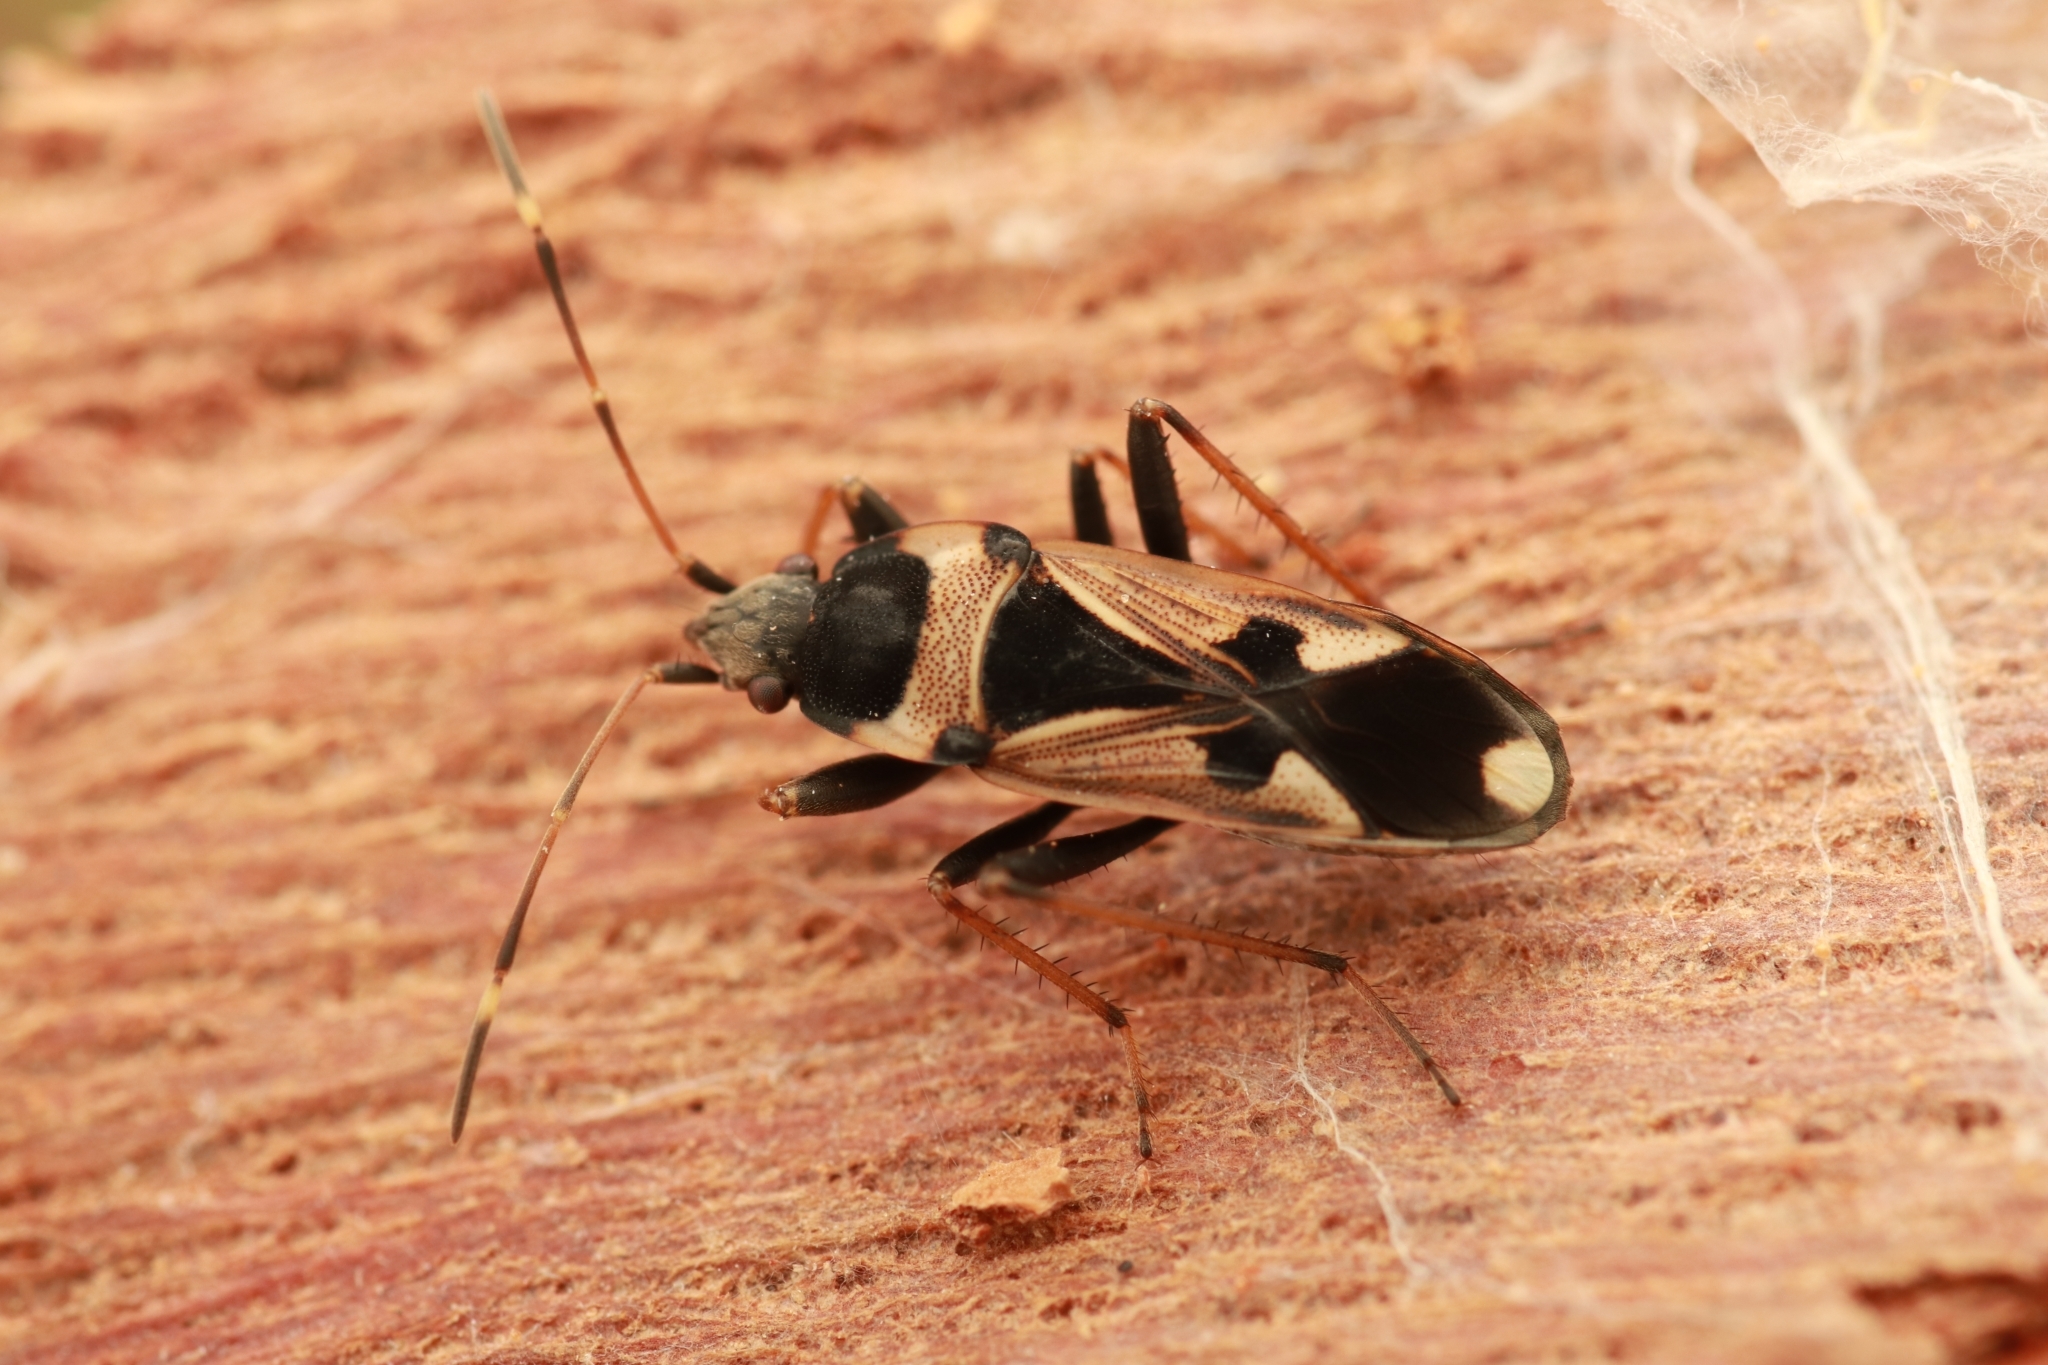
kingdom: Animalia
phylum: Arthropoda
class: Insecta
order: Hemiptera
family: Rhyparochromidae
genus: Raglius
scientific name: Raglius confusus
